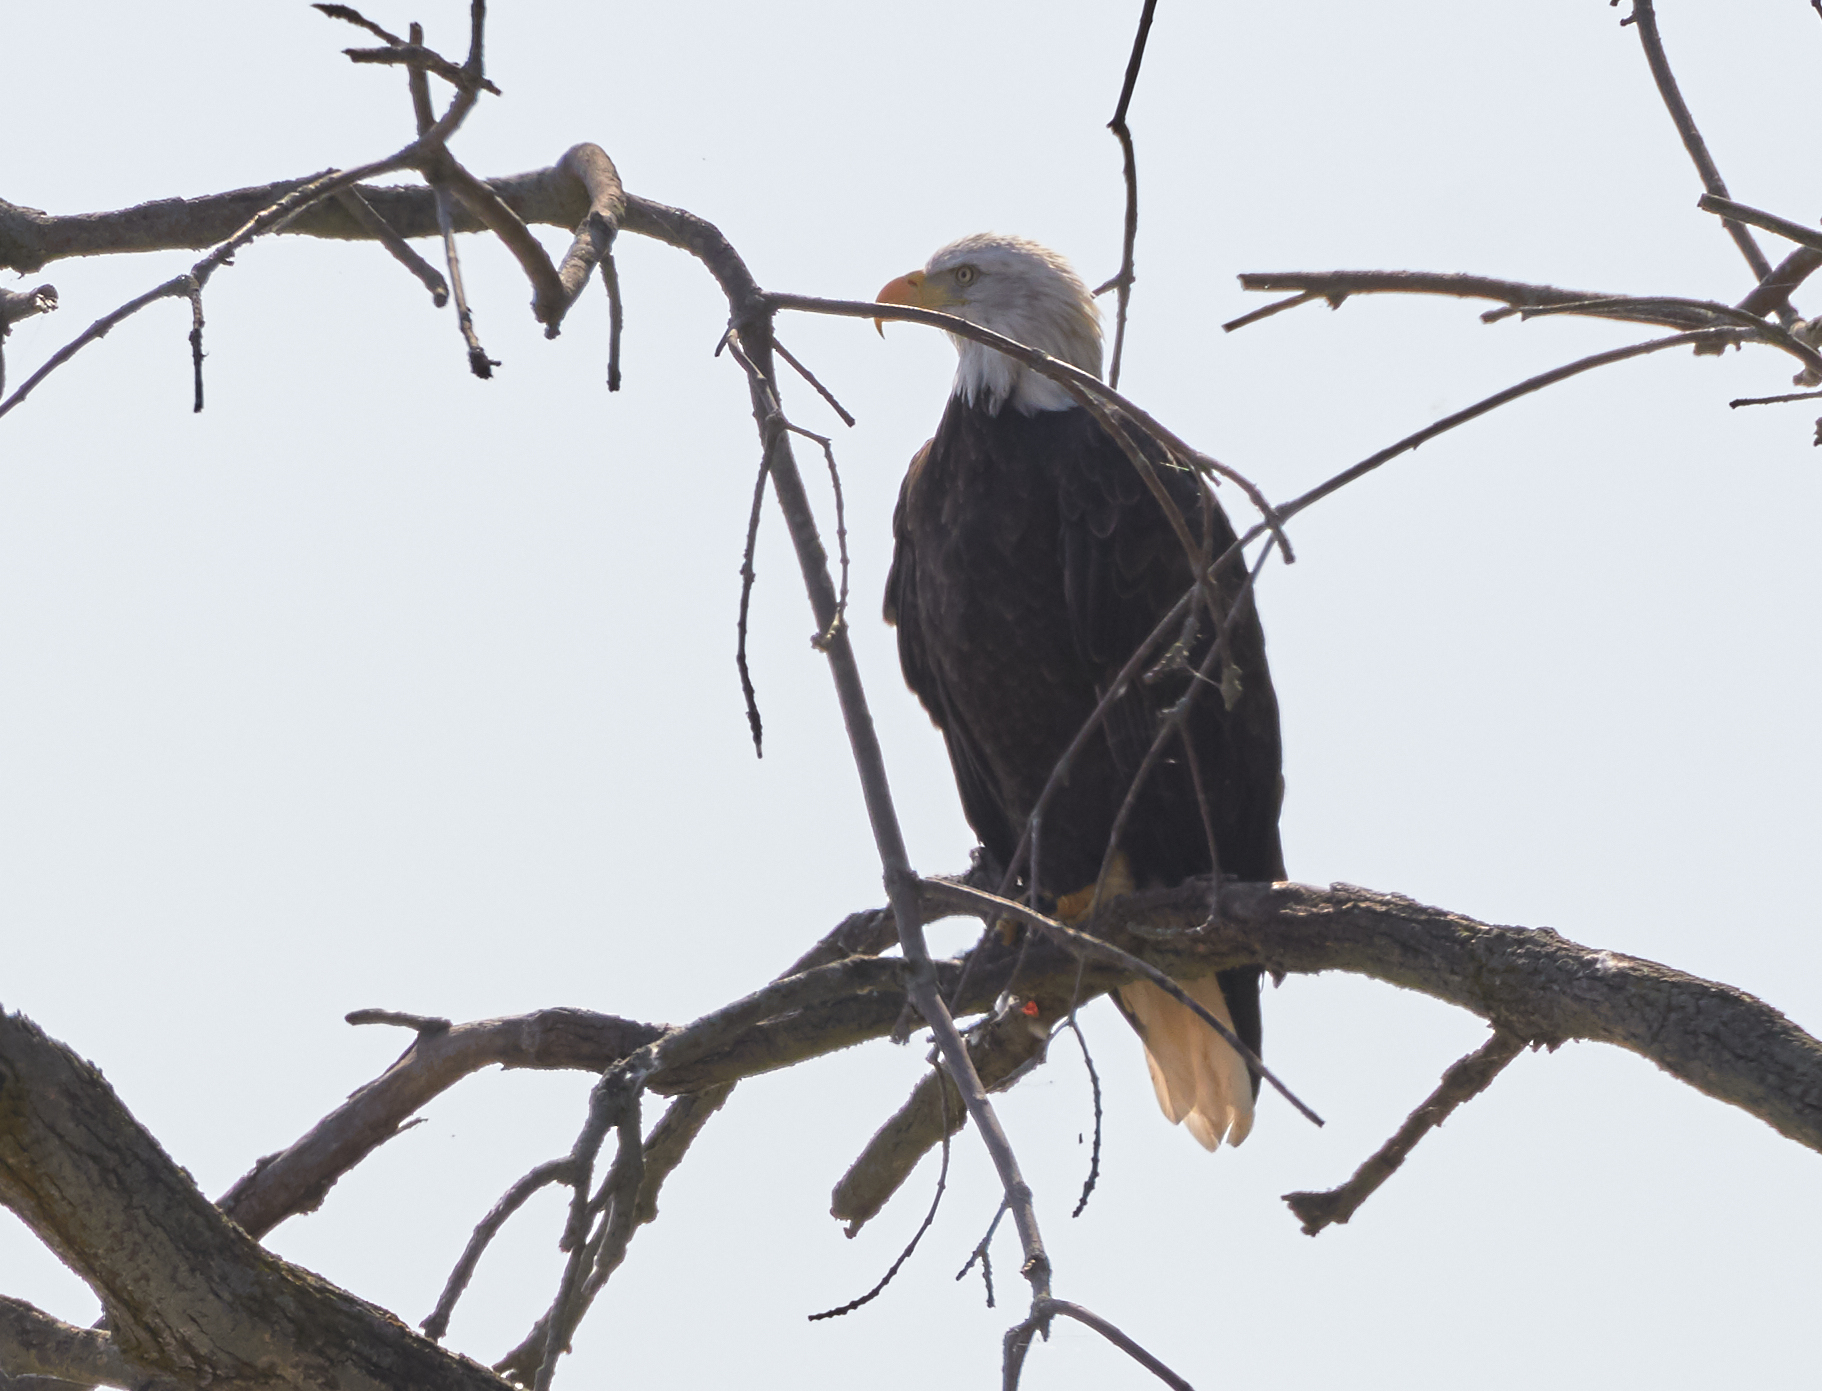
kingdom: Animalia
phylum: Chordata
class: Aves
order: Accipitriformes
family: Accipitridae
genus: Haliaeetus
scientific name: Haliaeetus leucocephalus
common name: Bald eagle
